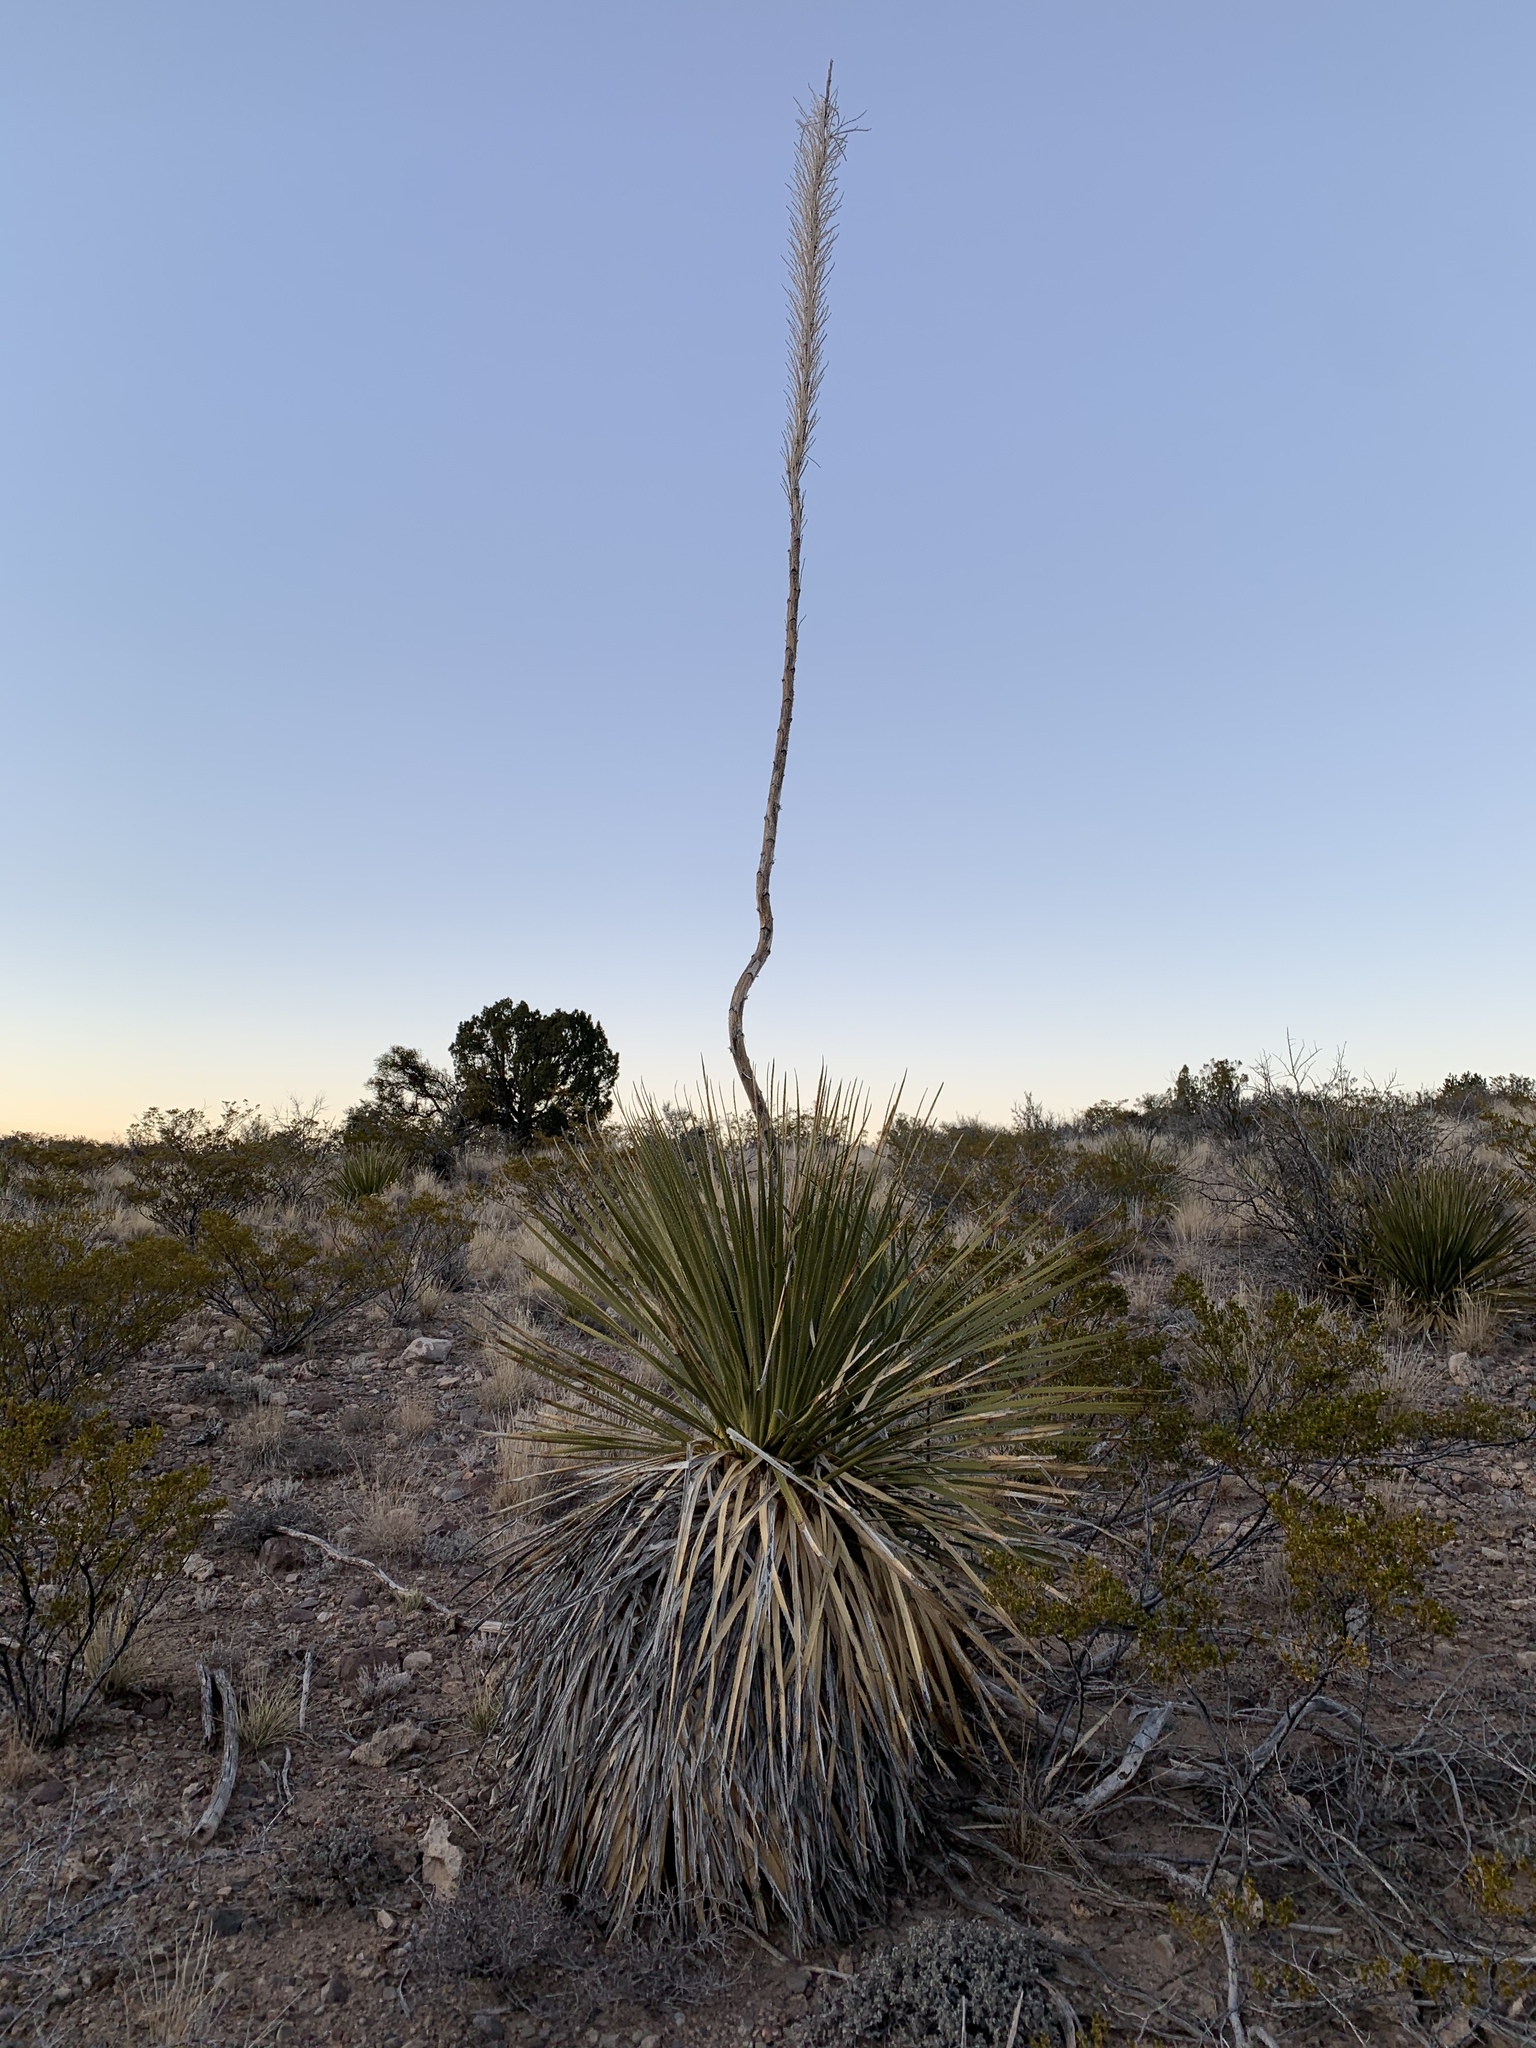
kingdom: Plantae
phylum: Tracheophyta
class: Liliopsida
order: Asparagales
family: Asparagaceae
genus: Dasylirion
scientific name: Dasylirion wheeleri
